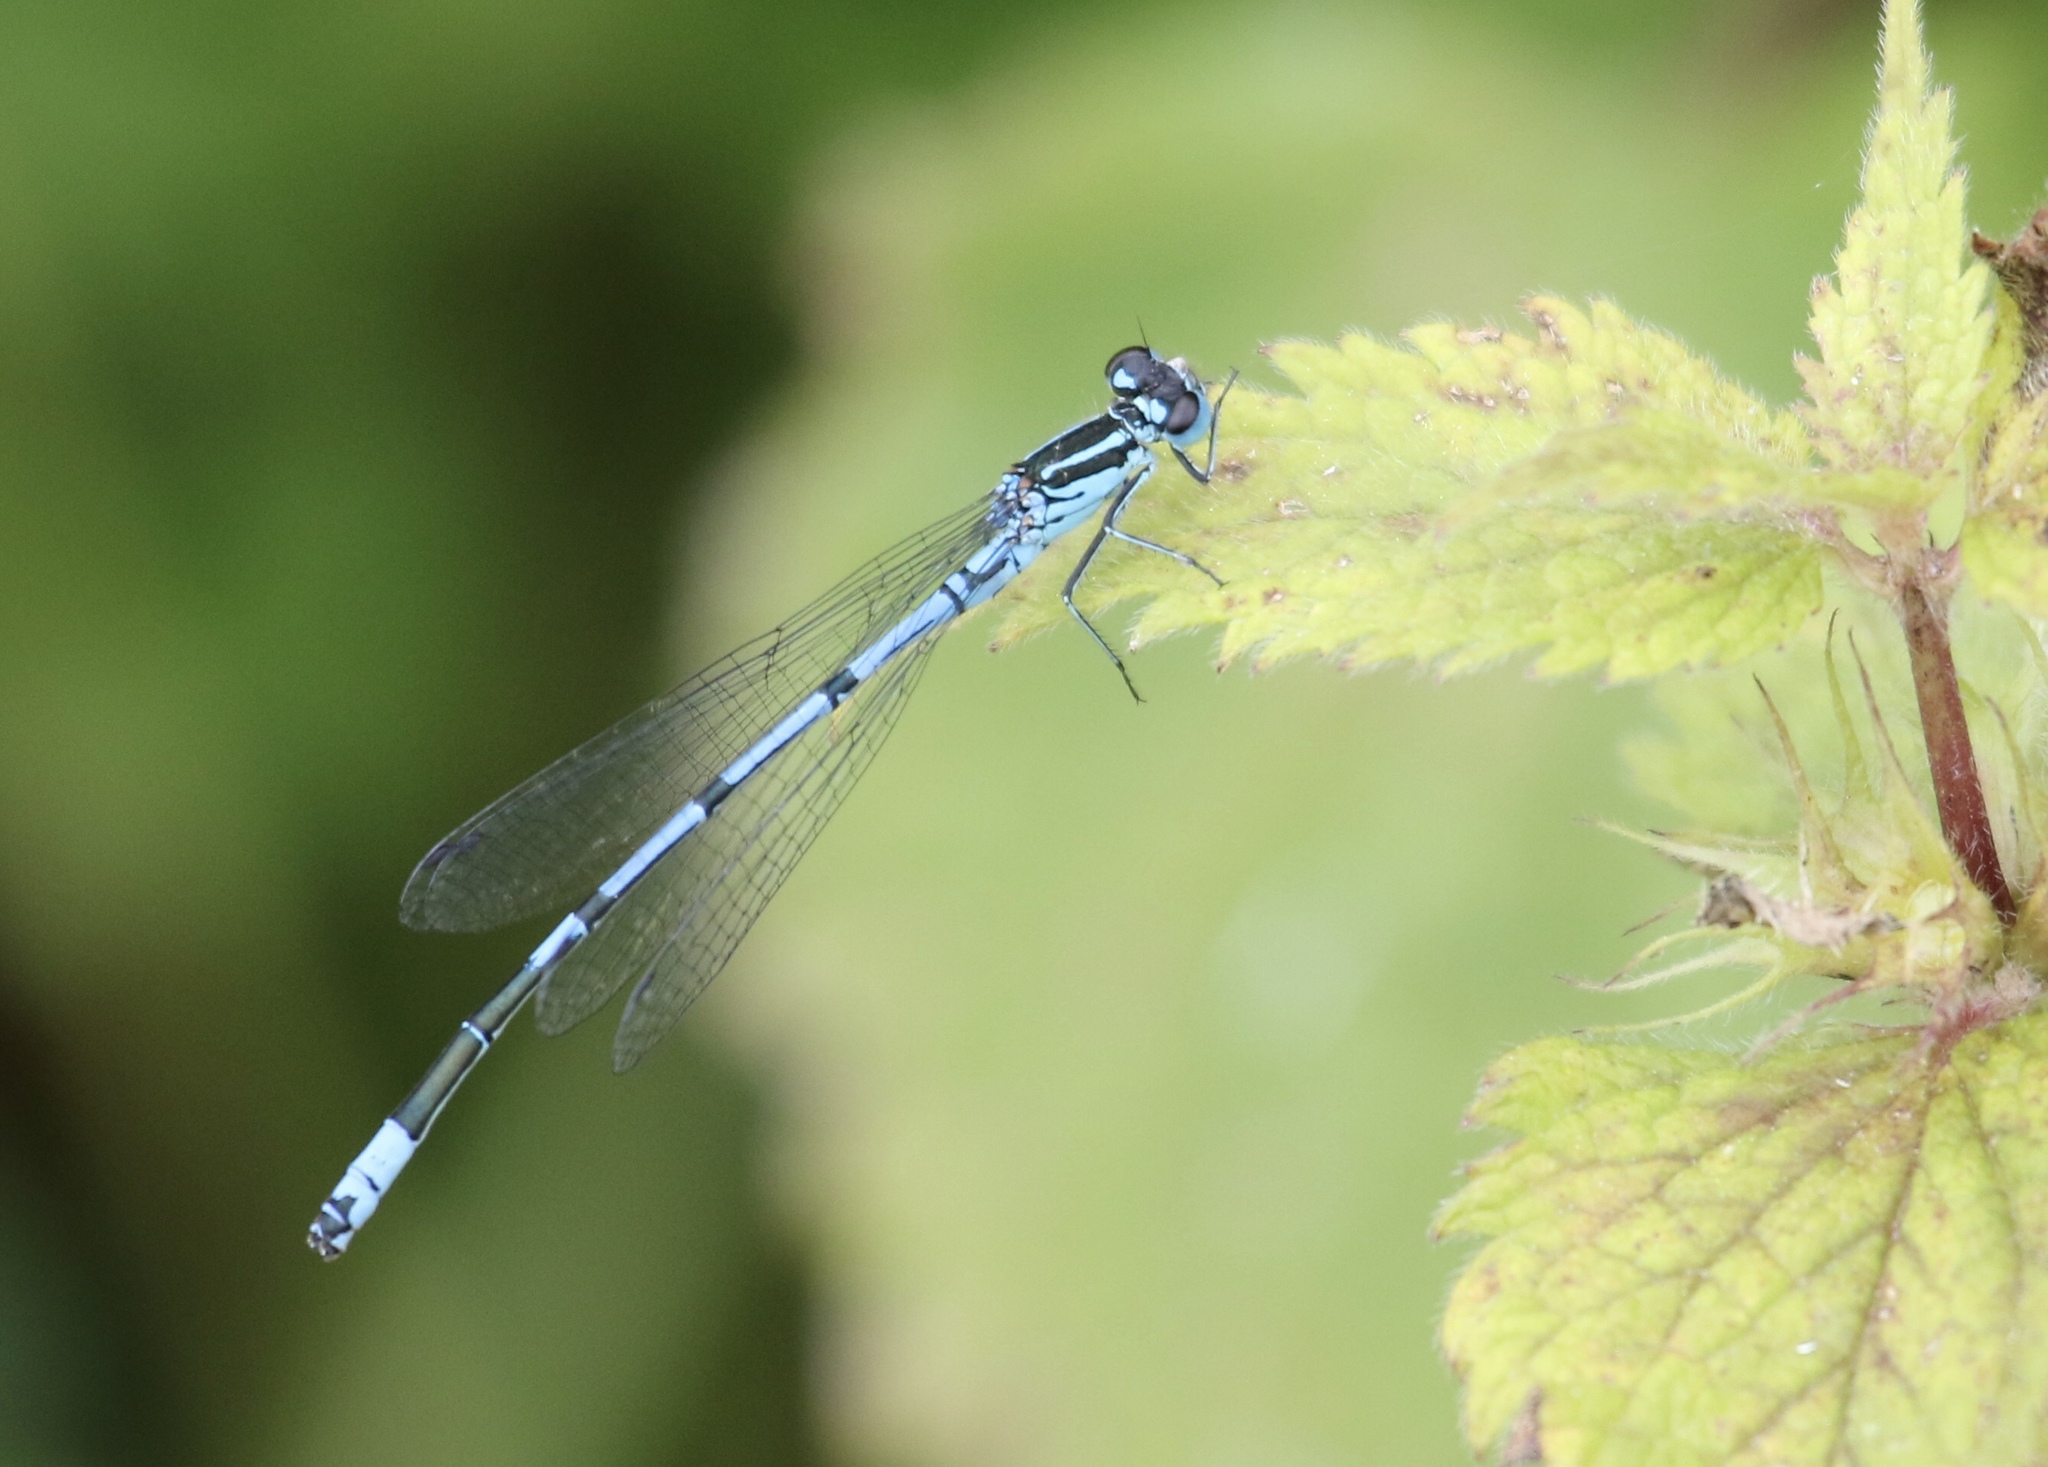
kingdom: Animalia
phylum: Arthropoda
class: Insecta
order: Odonata
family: Coenagrionidae
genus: Coenagrion
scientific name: Coenagrion puella
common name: Azure damselfly
